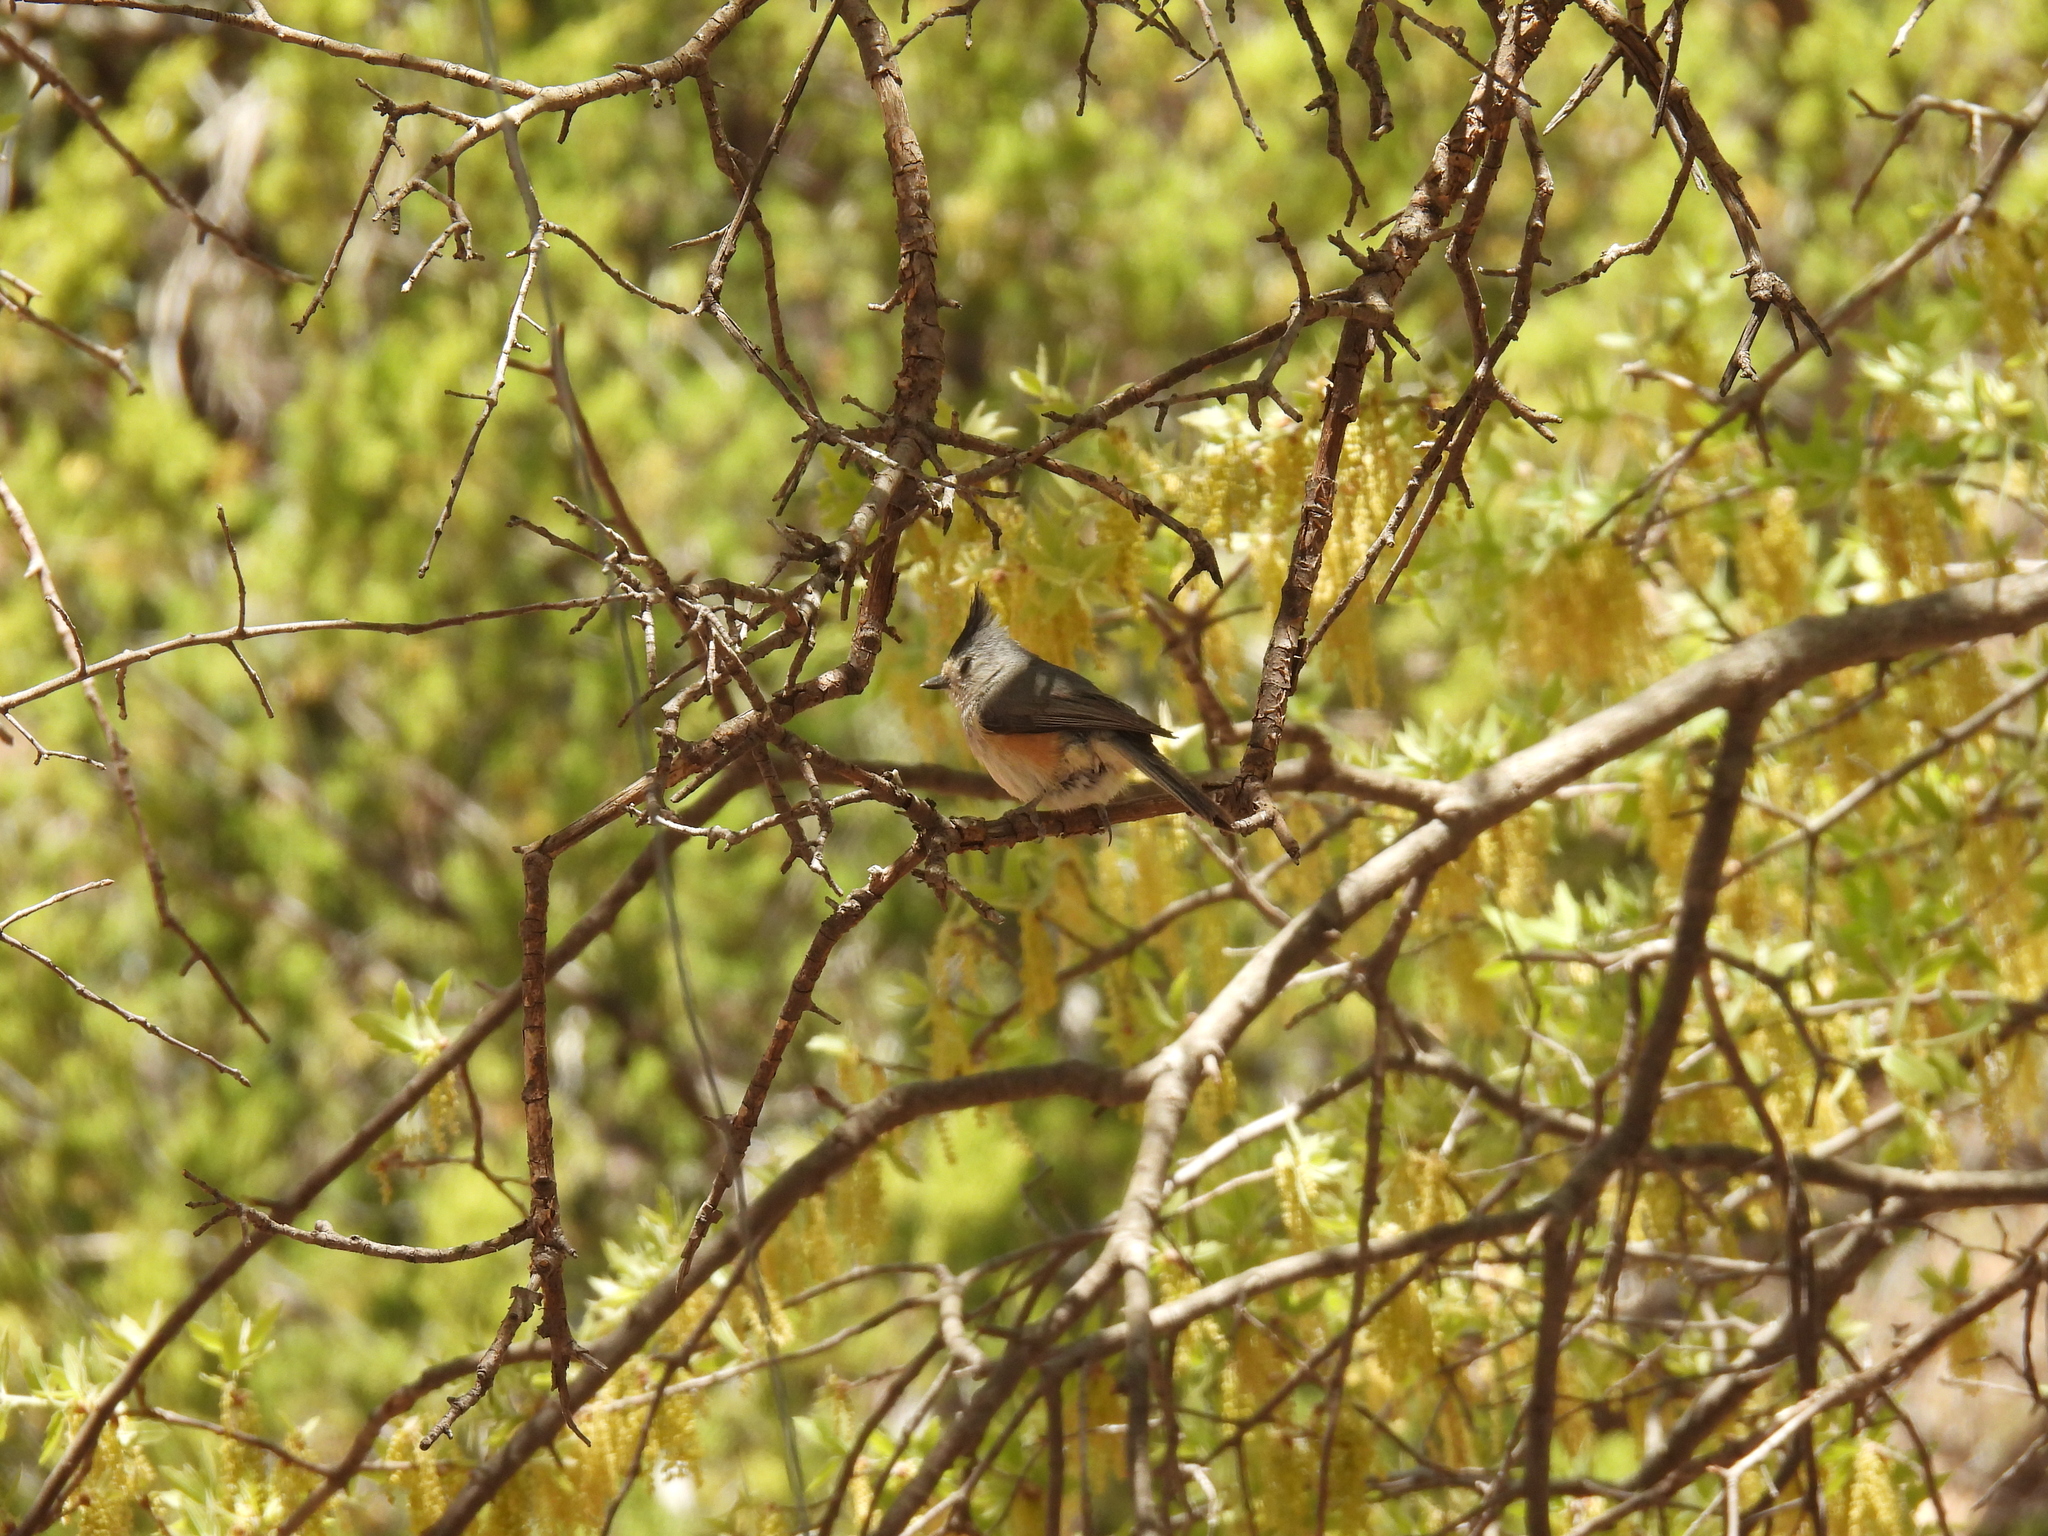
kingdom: Animalia
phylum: Chordata
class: Aves
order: Passeriformes
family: Paridae
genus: Baeolophus
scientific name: Baeolophus atricristatus
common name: Black-crested titmouse
